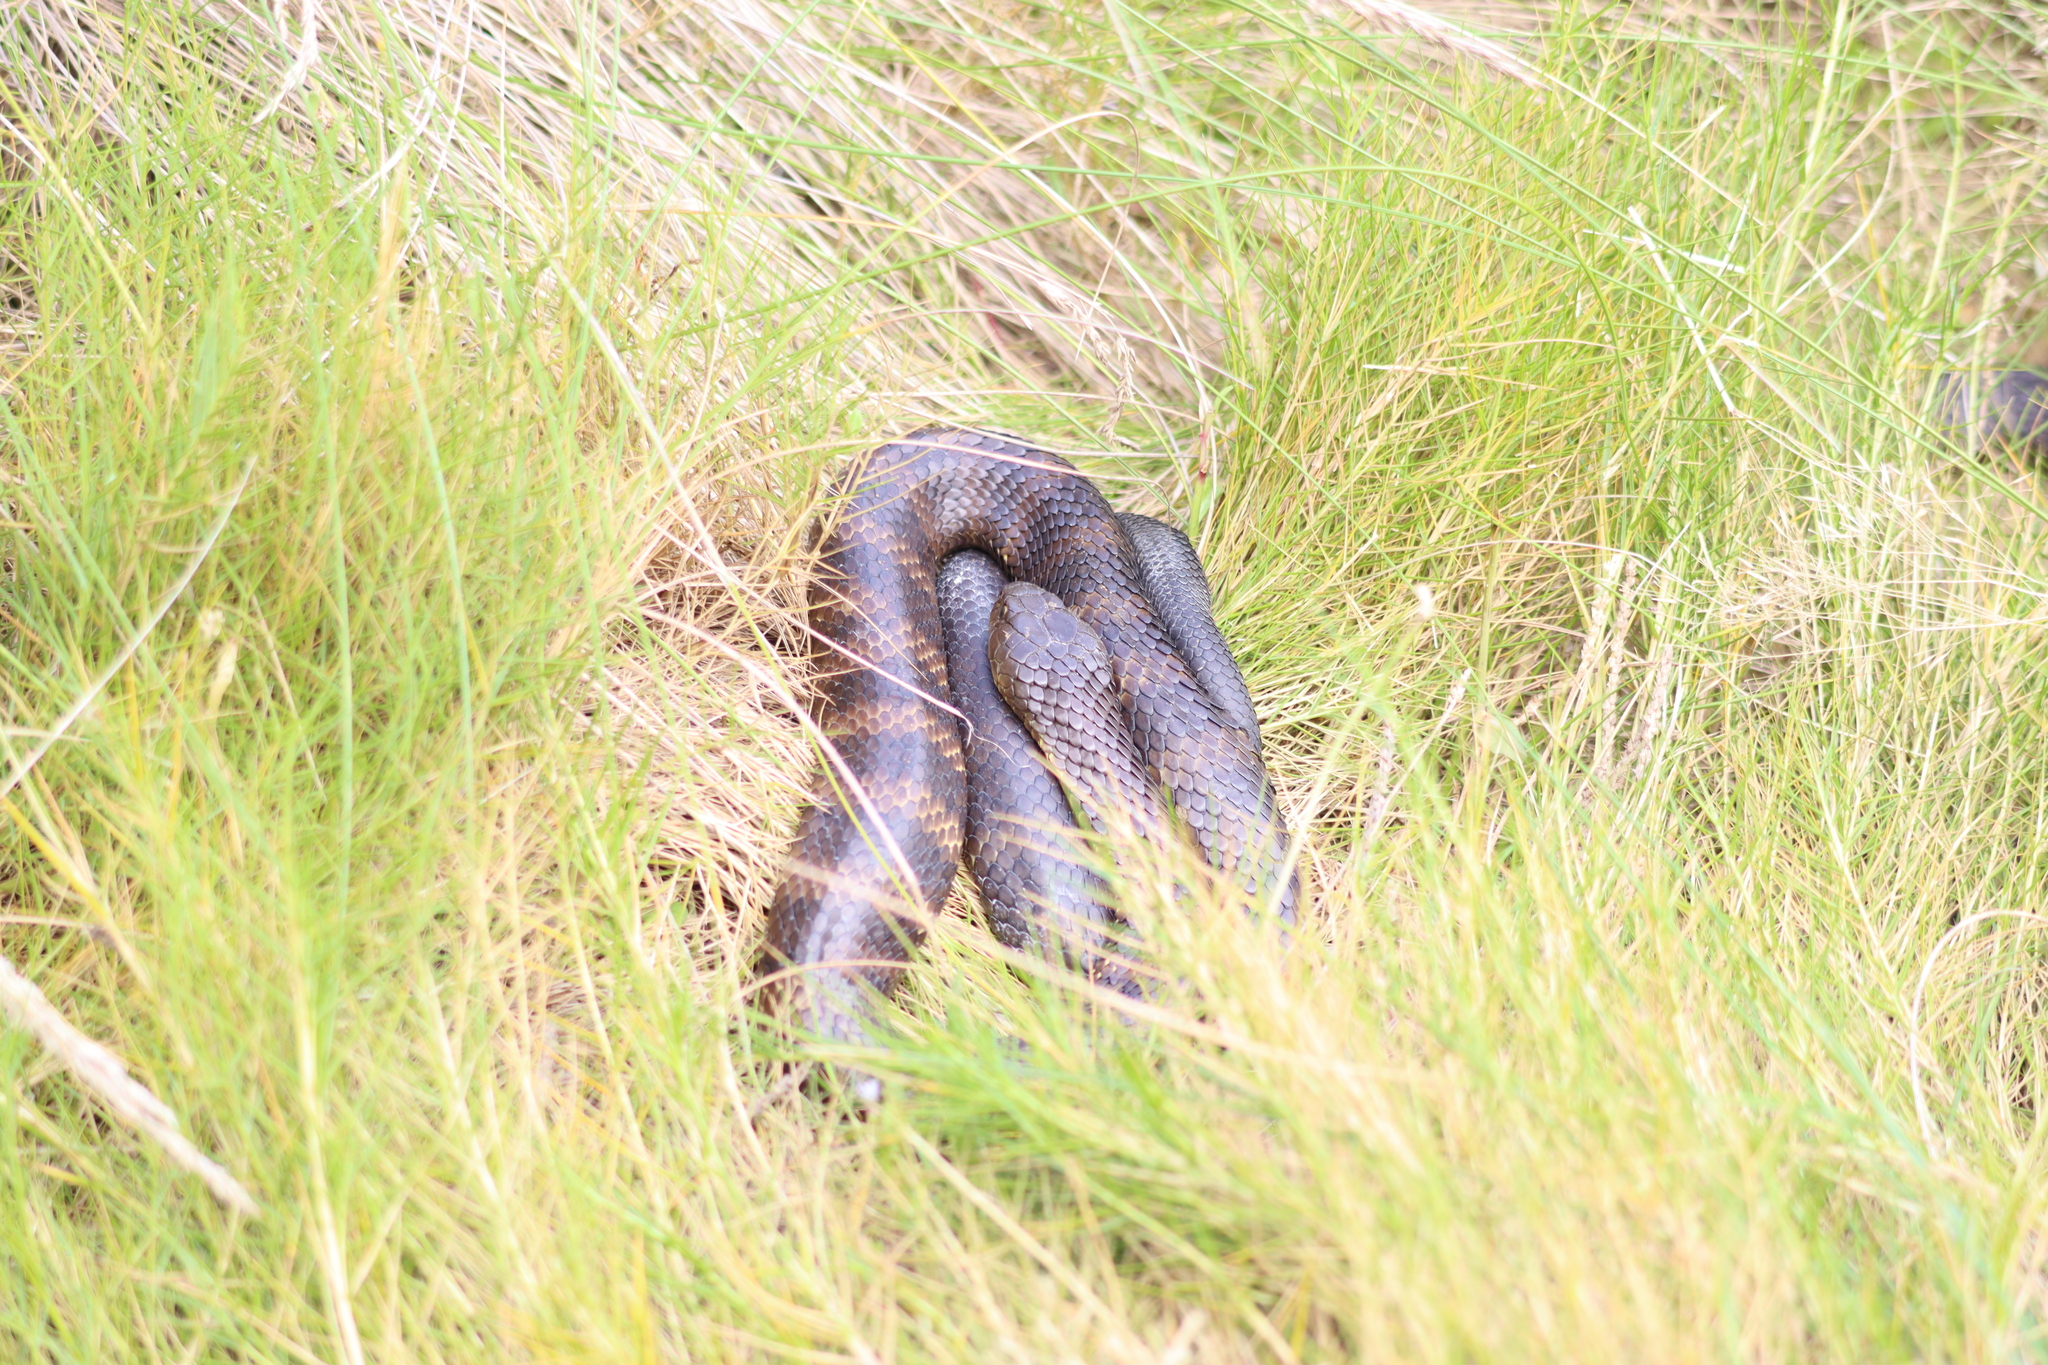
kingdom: Animalia
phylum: Chordata
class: Squamata
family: Elapidae
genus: Notechis
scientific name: Notechis scutatus
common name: Mainland tiger snake
